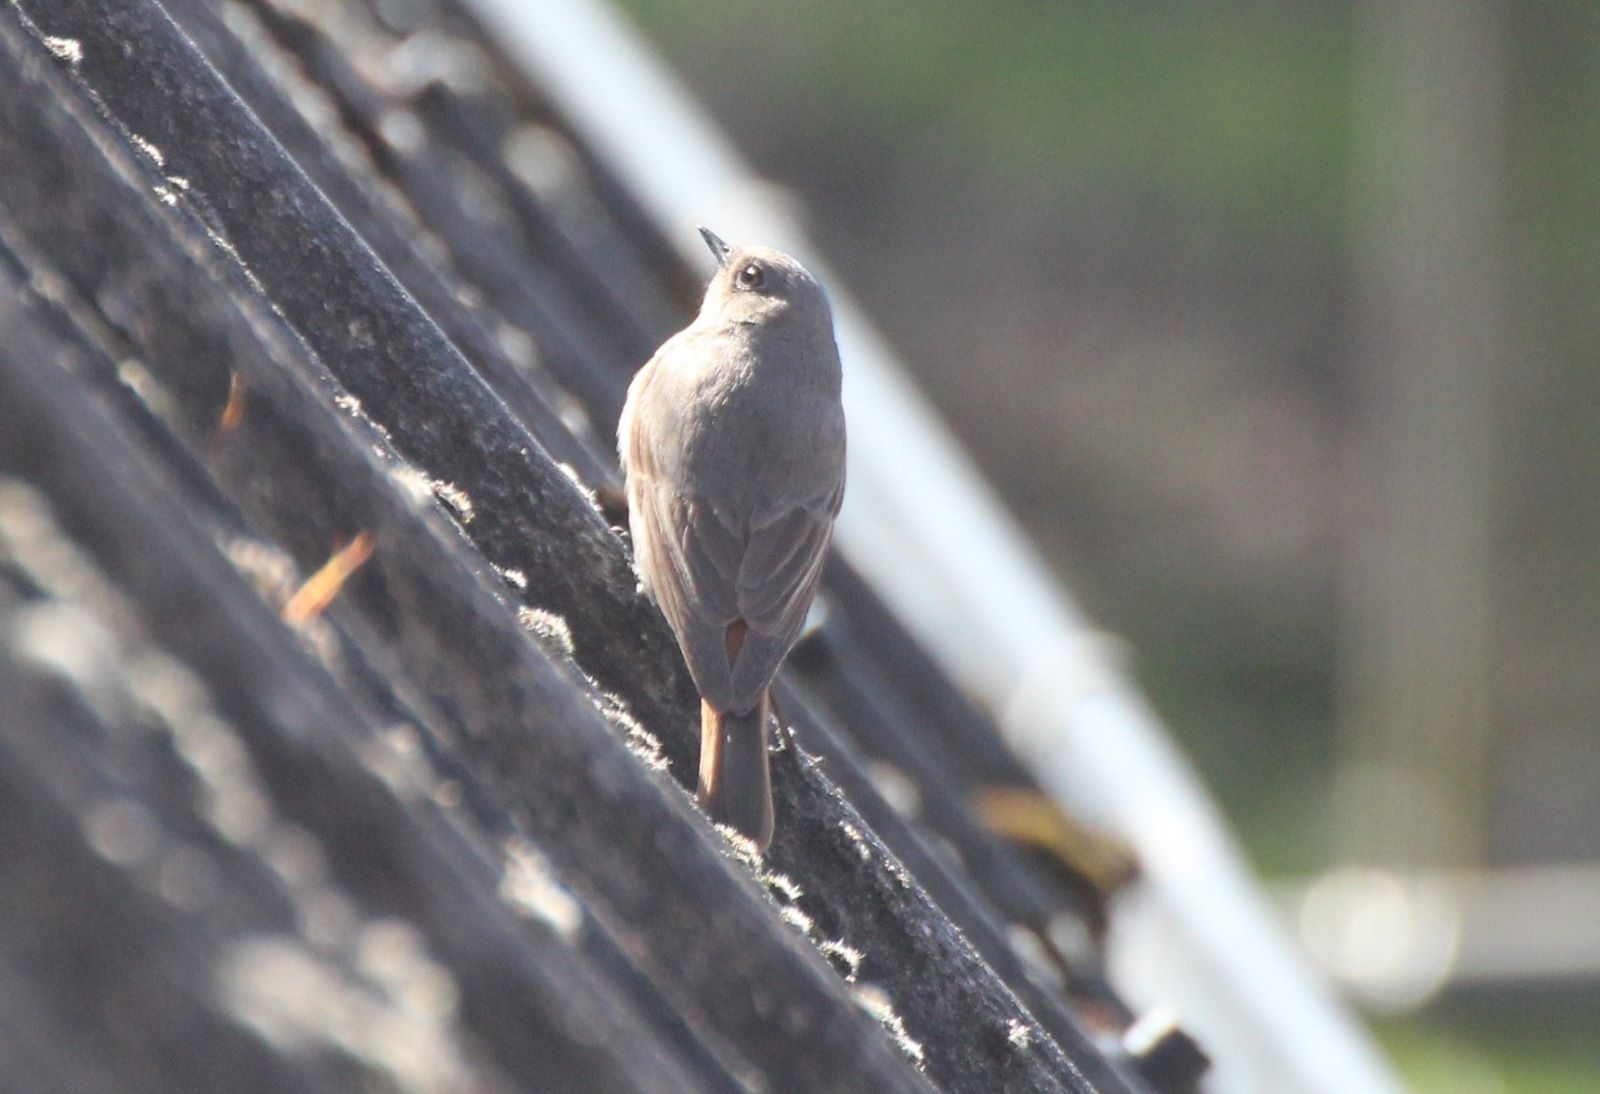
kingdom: Animalia
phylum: Chordata
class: Aves
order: Passeriformes
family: Muscicapidae
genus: Phoenicurus
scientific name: Phoenicurus ochruros
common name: Black redstart
